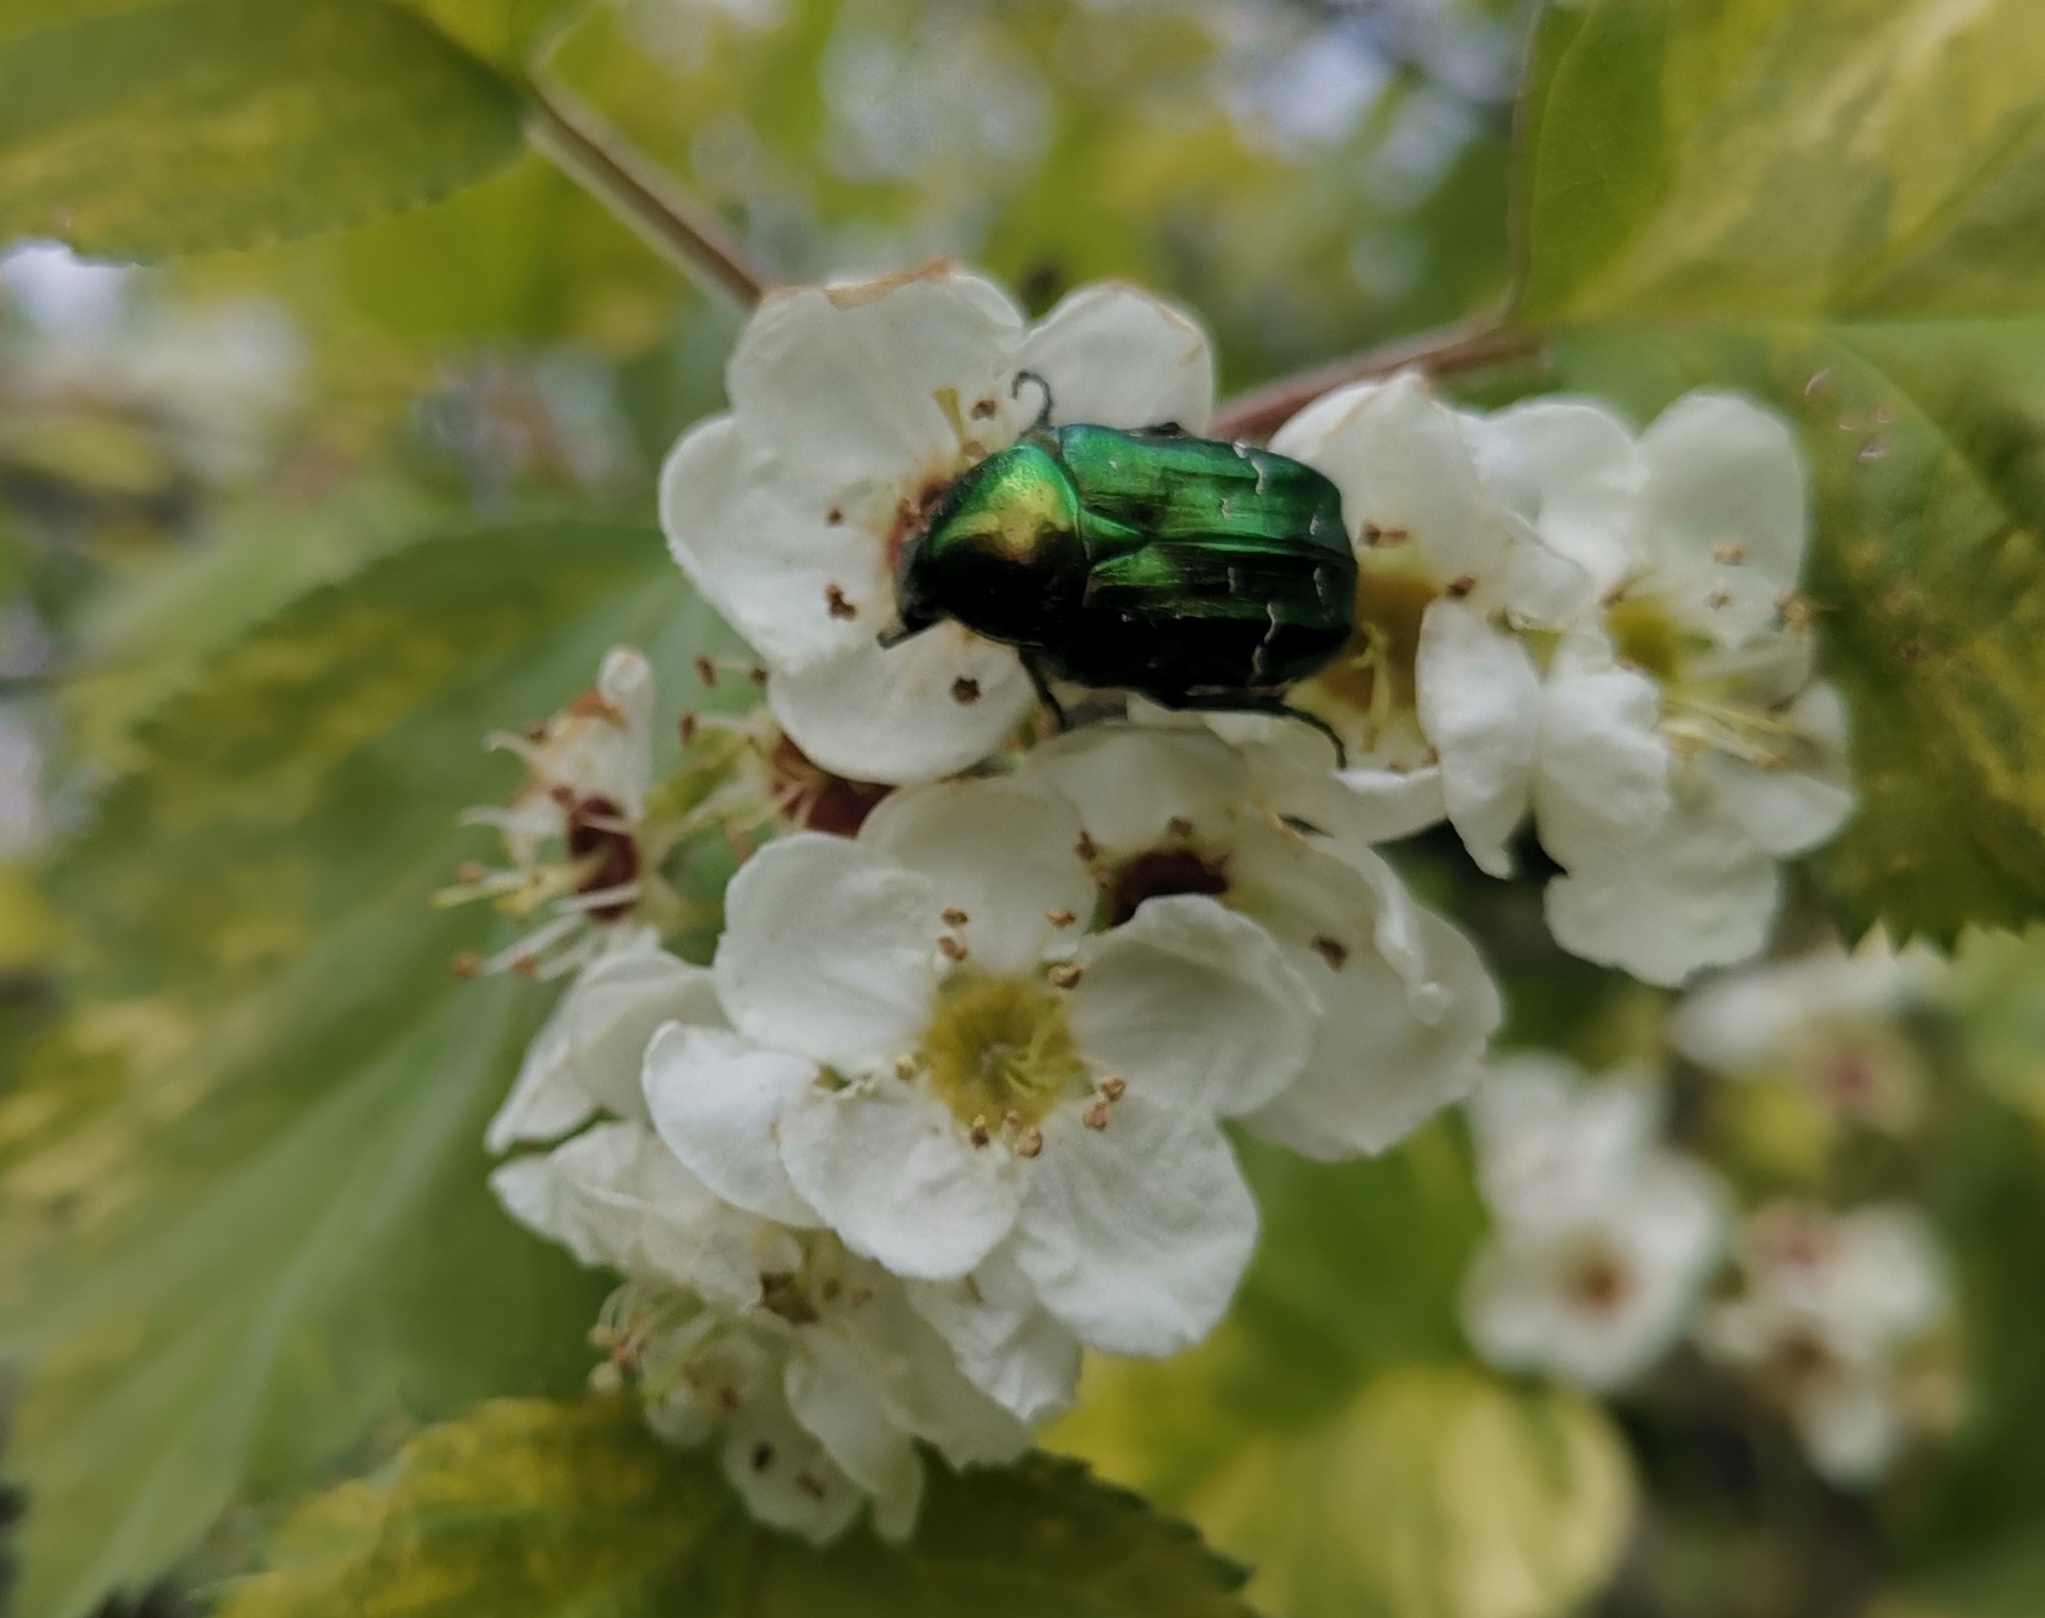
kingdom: Animalia
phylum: Arthropoda
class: Insecta
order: Coleoptera
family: Scarabaeidae
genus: Cetonia
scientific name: Cetonia aurata
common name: Rose chafer
